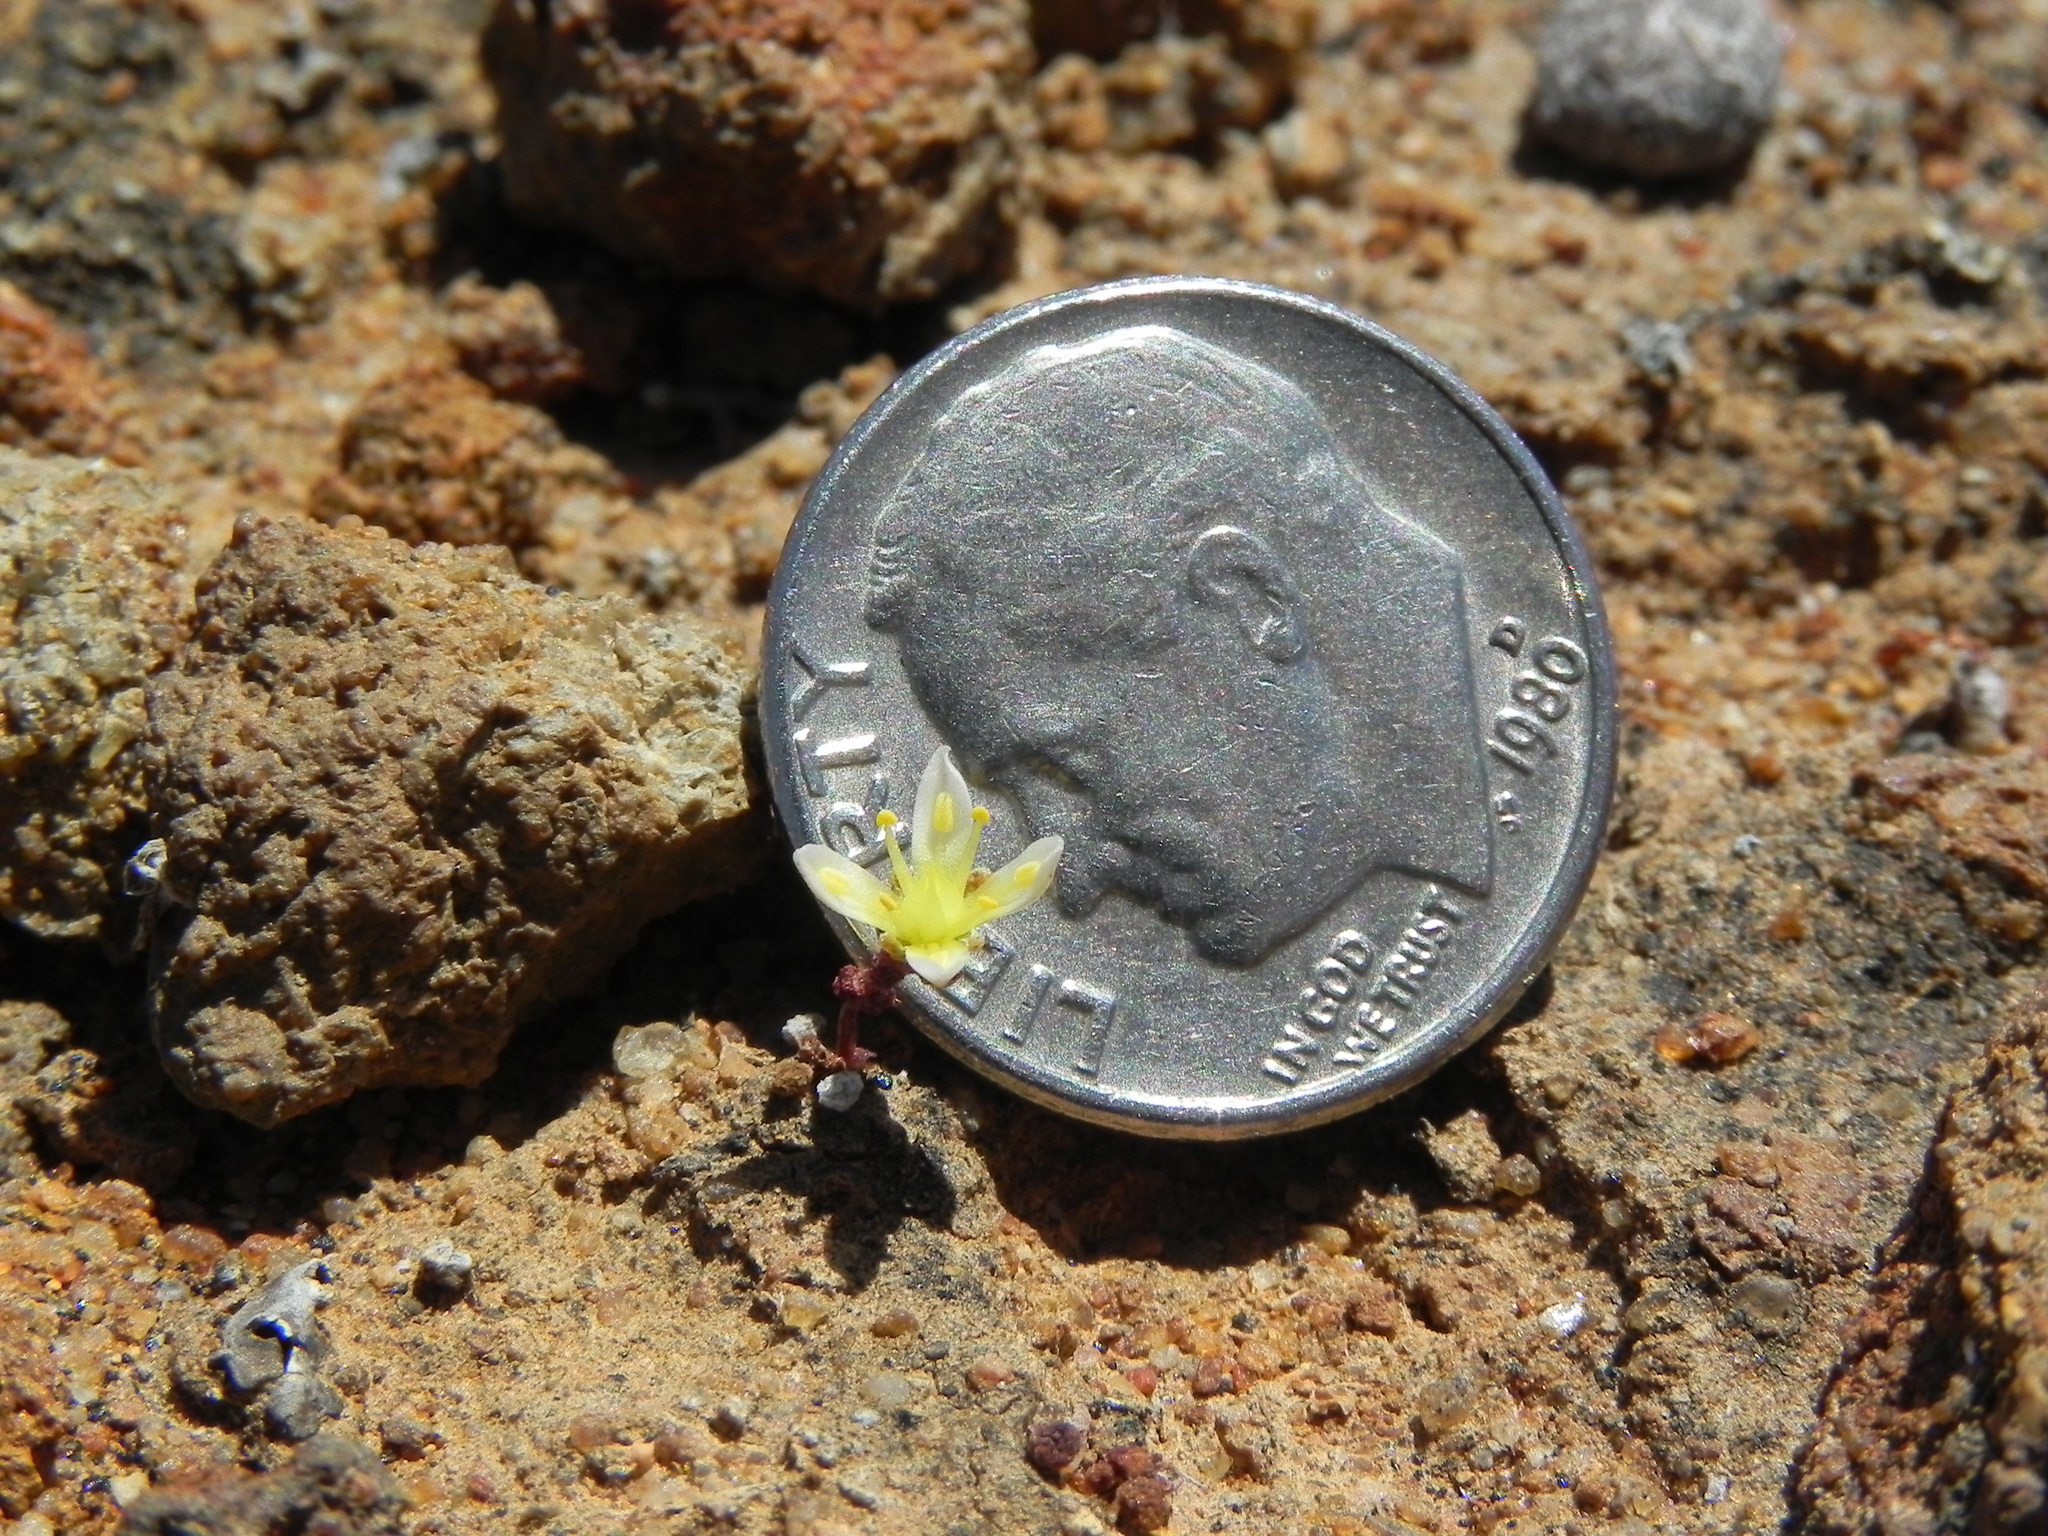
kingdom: Plantae
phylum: Tracheophyta
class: Magnoliopsida
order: Saxifragales
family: Crassulaceae
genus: Dudleya
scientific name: Dudleya blochmaniae
